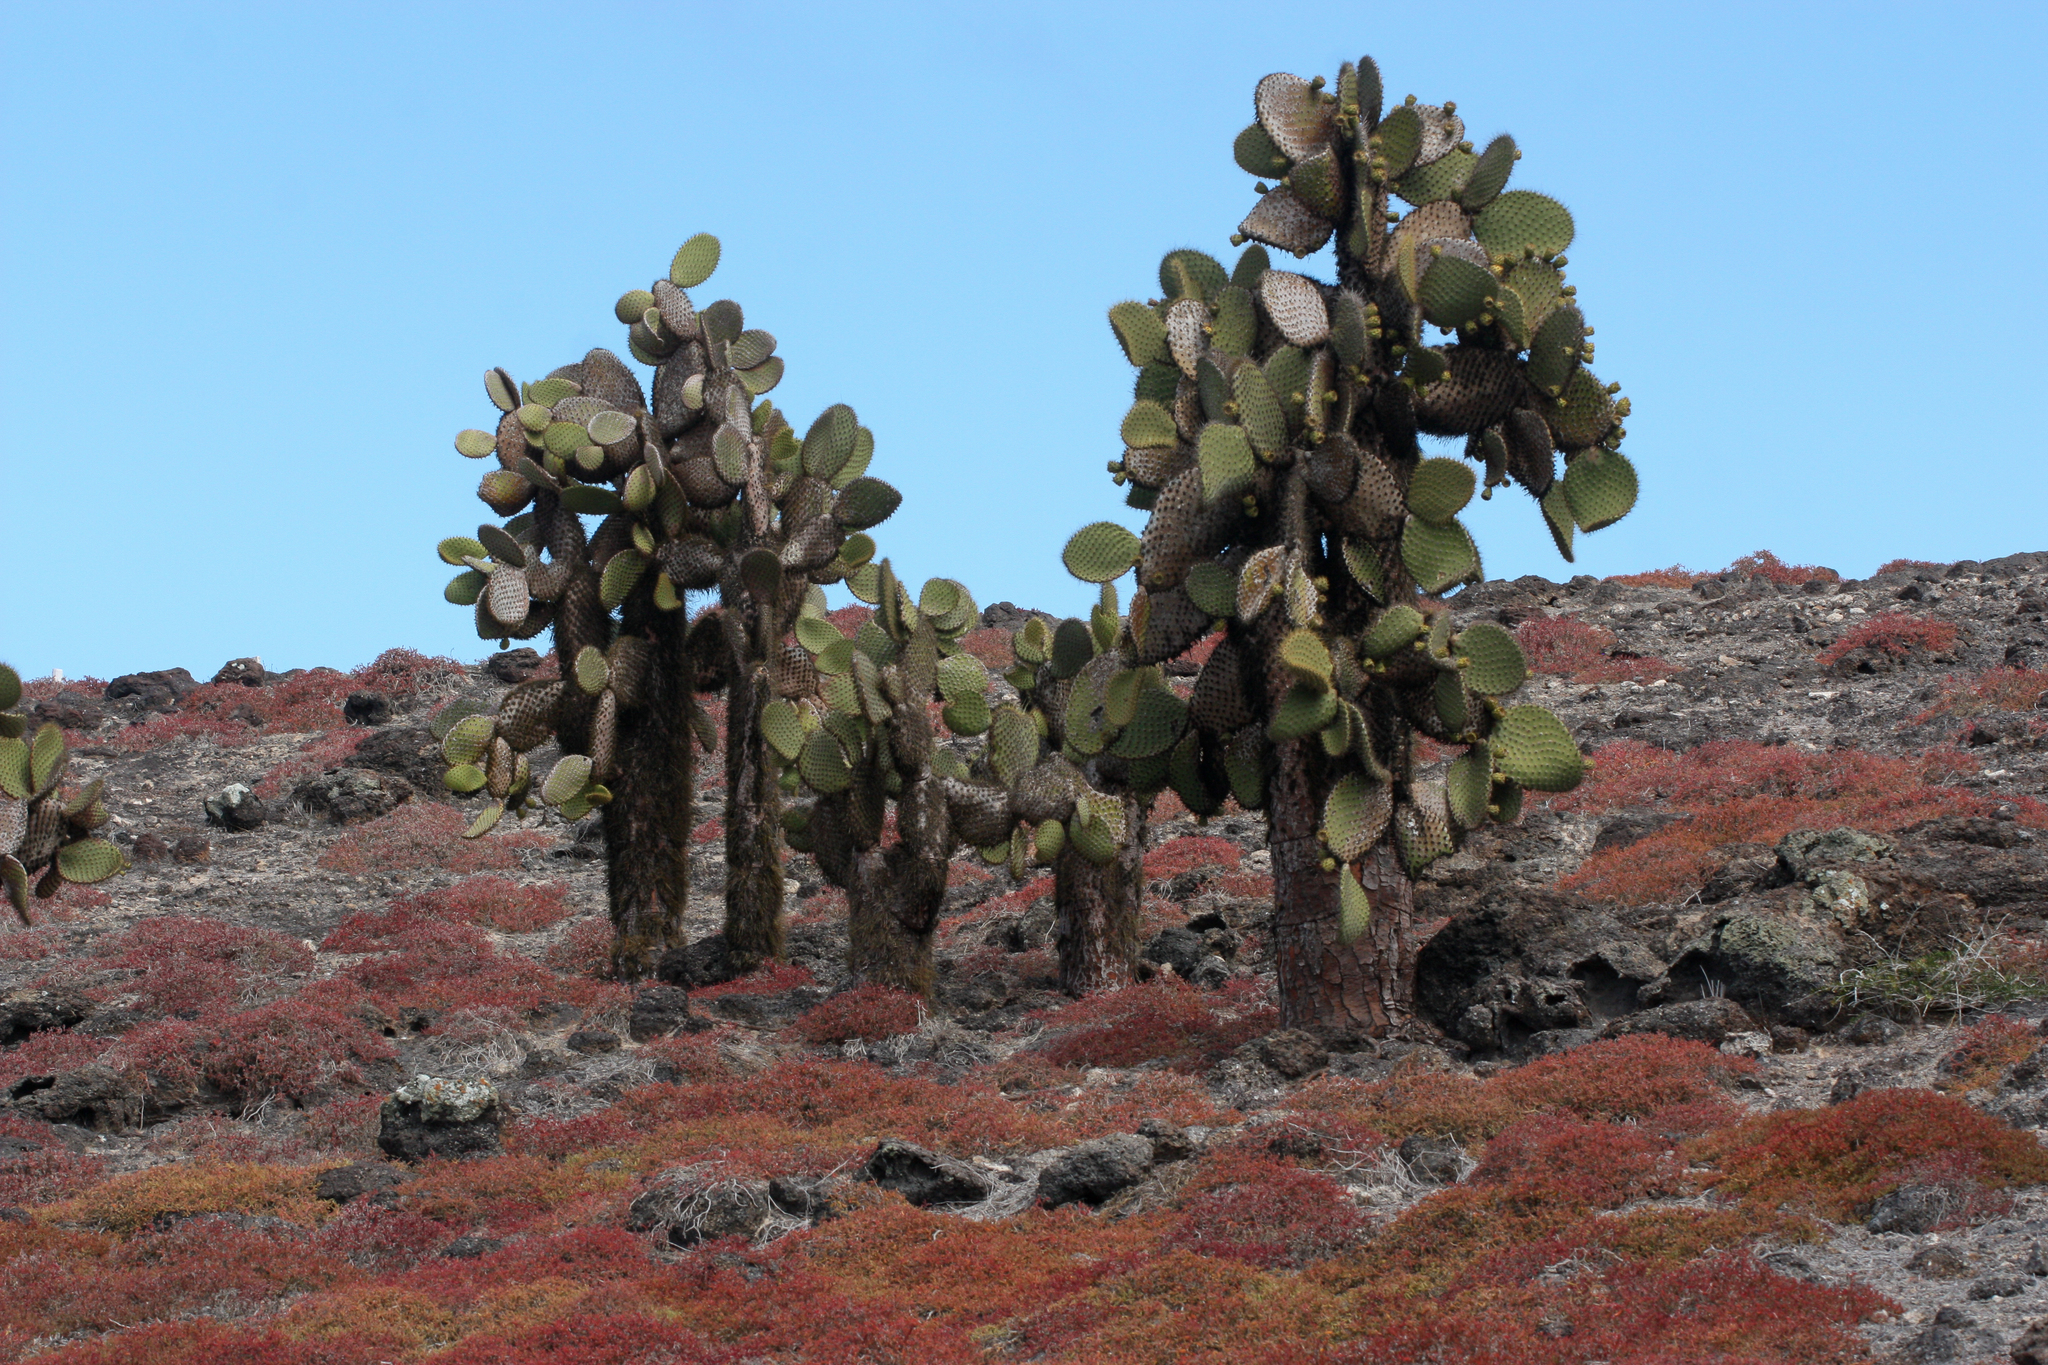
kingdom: Plantae
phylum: Tracheophyta
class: Magnoliopsida
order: Caryophyllales
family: Cactaceae
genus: Opuntia
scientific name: Opuntia galapageia
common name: Galápagos prickly pear
